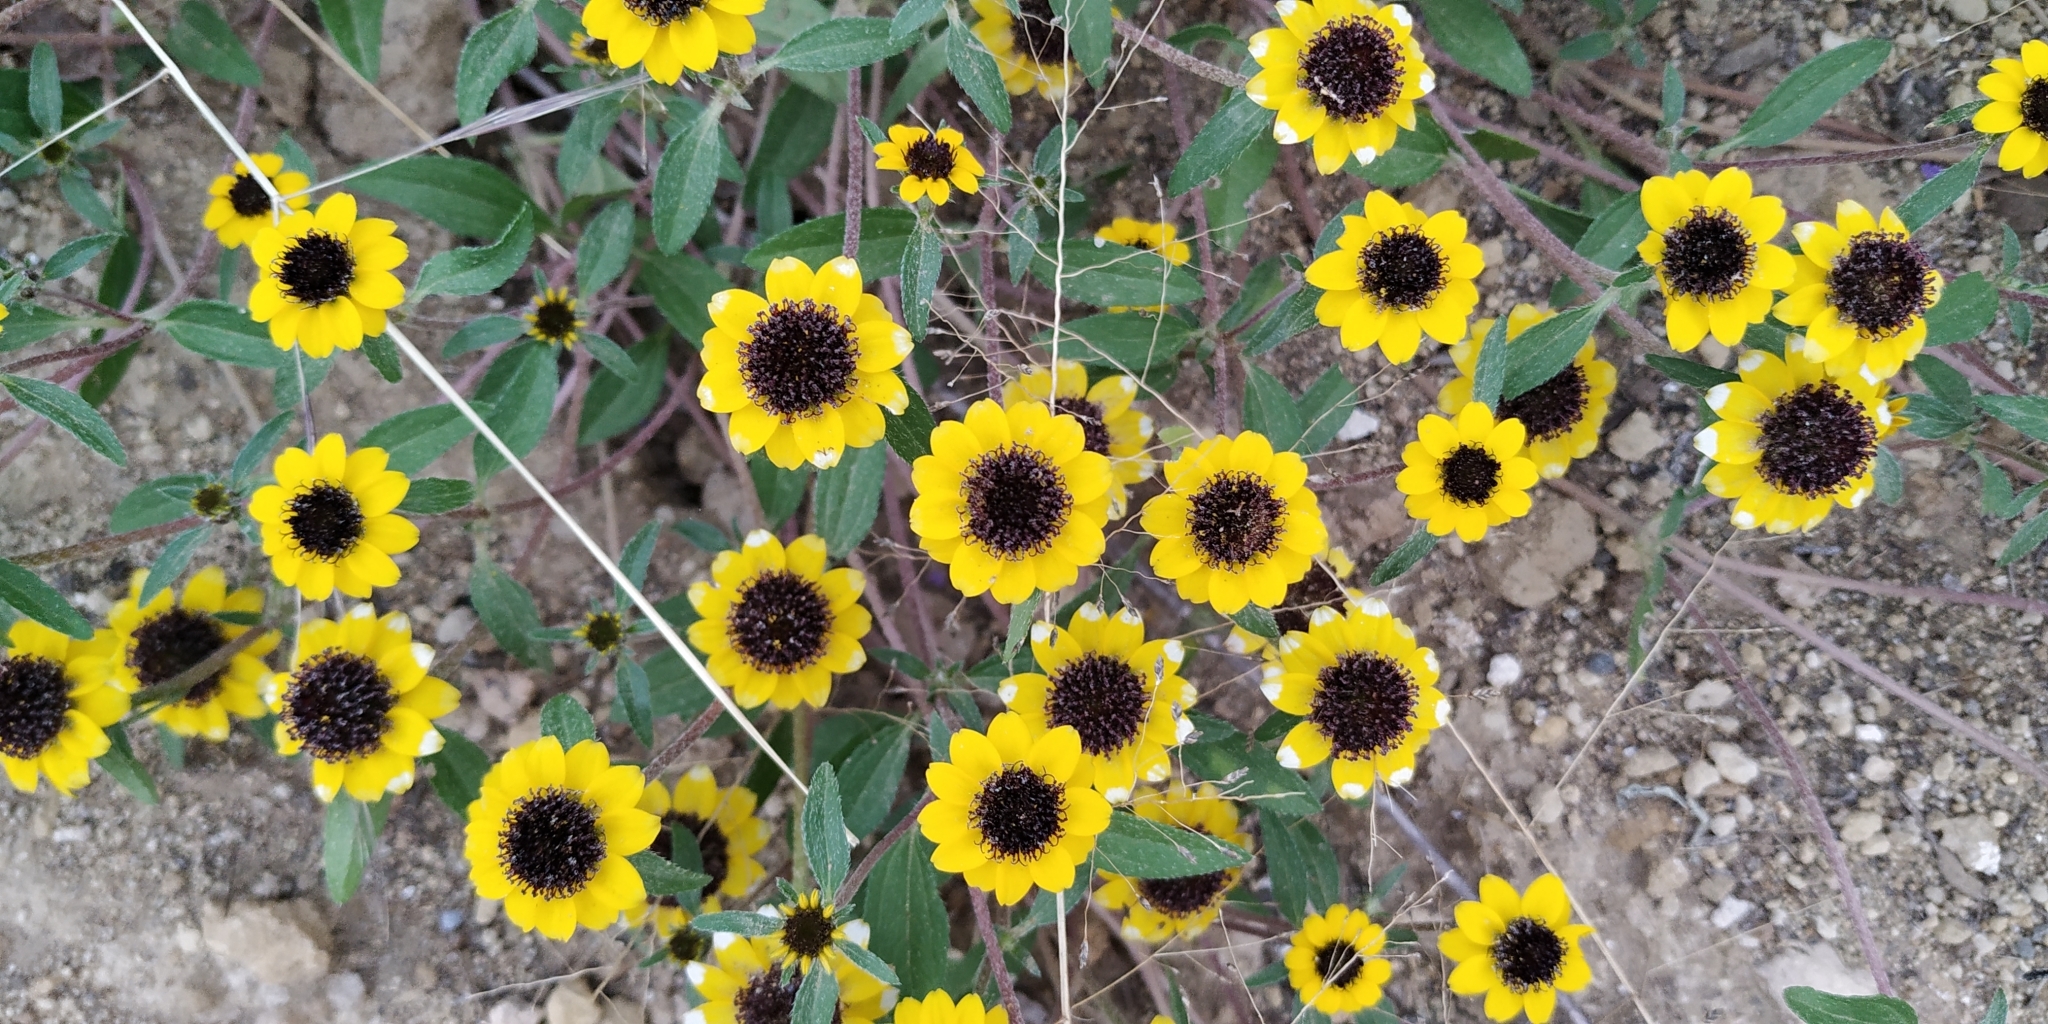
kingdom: Plantae
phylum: Tracheophyta
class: Magnoliopsida
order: Asterales
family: Asteraceae
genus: Sanvitalia
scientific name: Sanvitalia procumbens
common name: Mexican creeping zinnia
